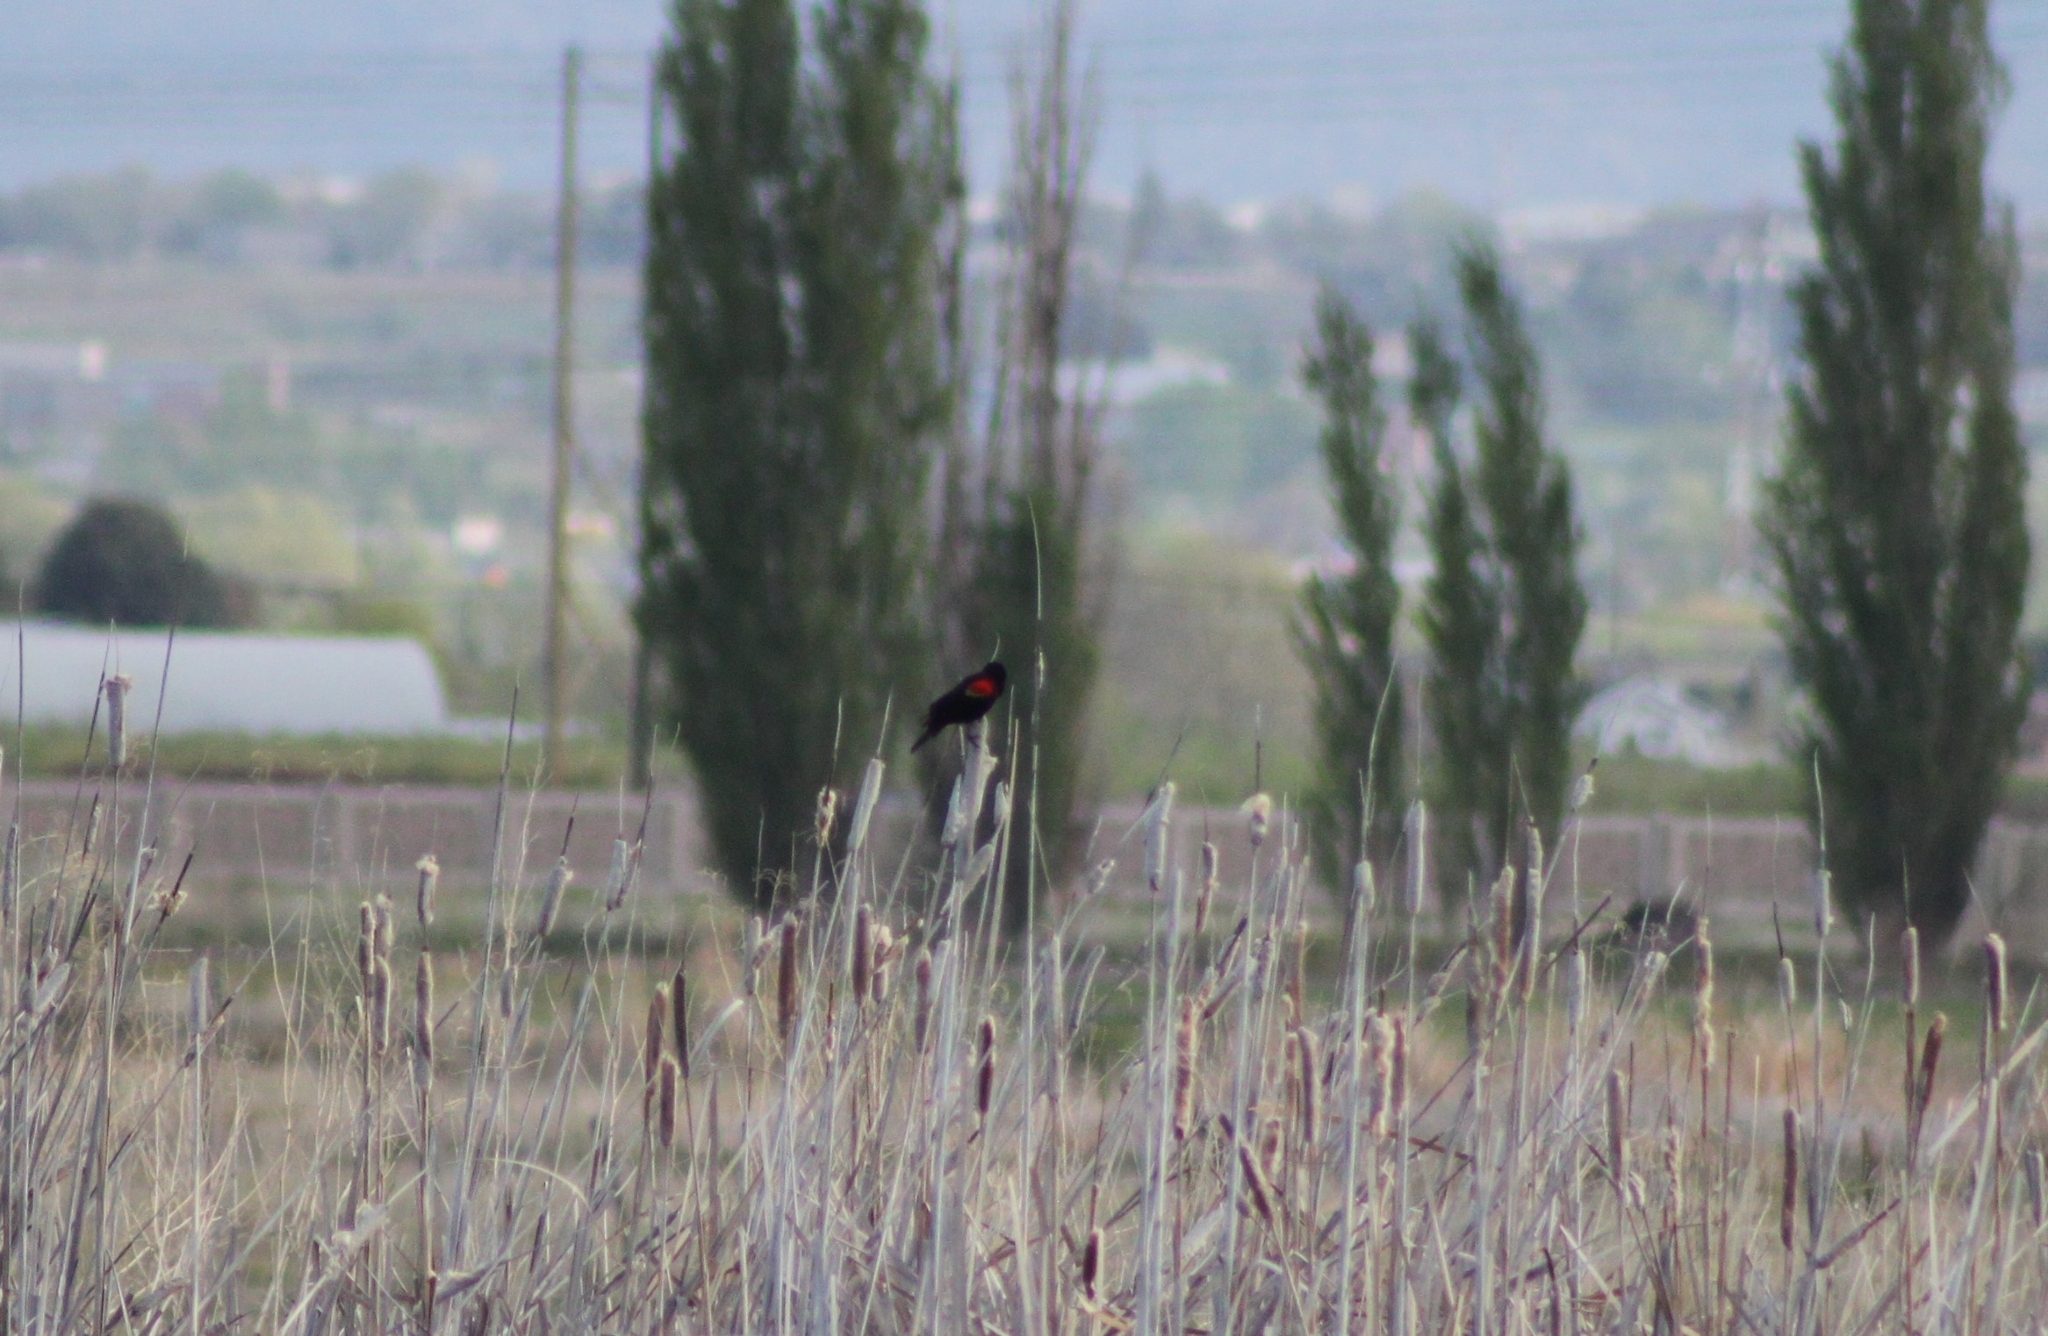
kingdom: Animalia
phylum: Chordata
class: Aves
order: Passeriformes
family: Icteridae
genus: Agelaius
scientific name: Agelaius phoeniceus
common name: Red-winged blackbird
